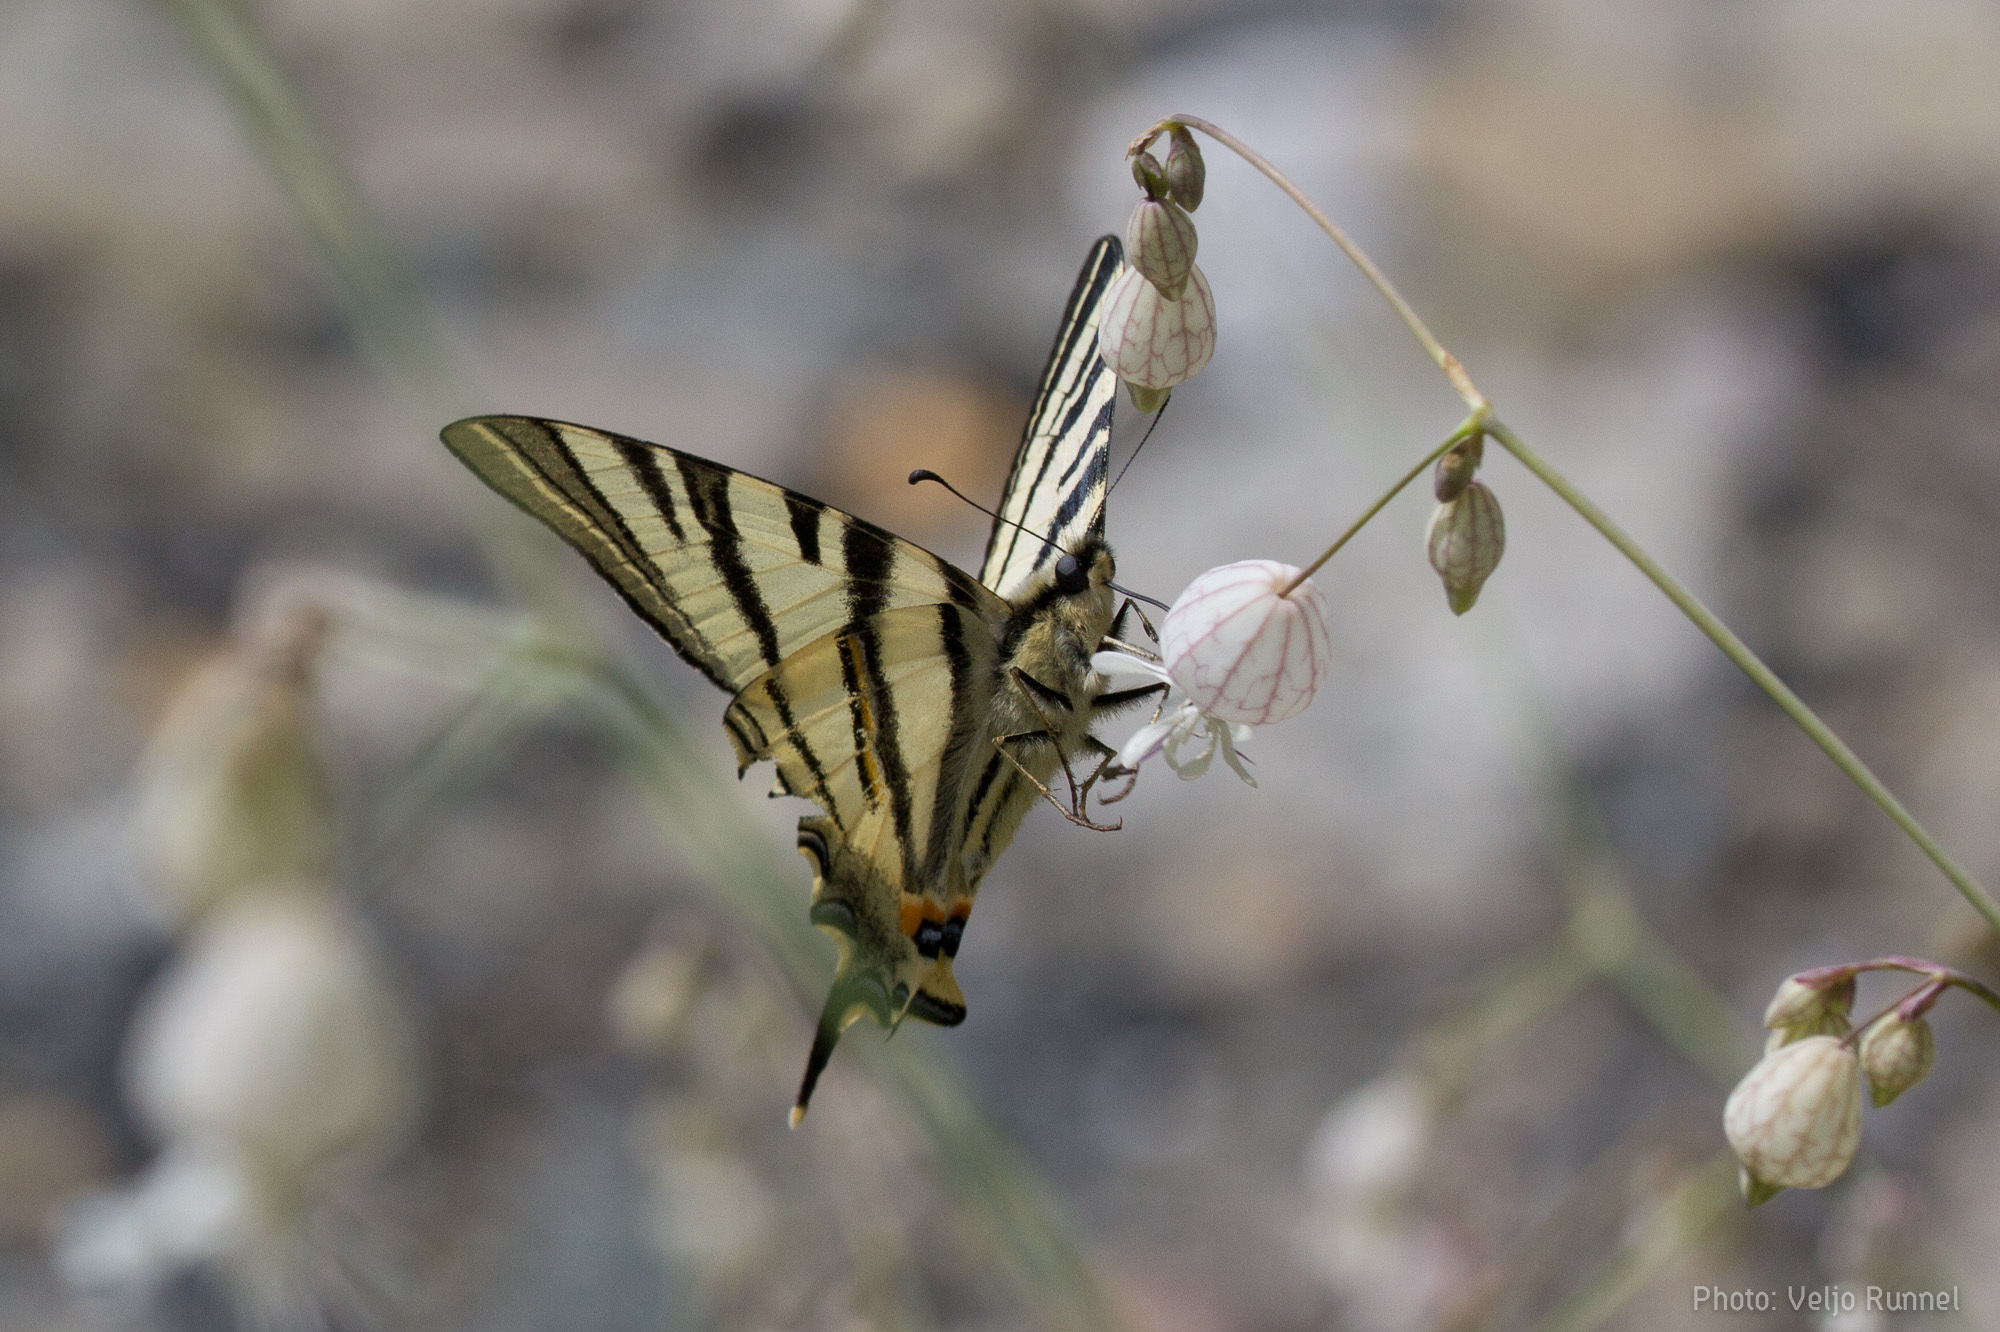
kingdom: Animalia
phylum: Arthropoda
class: Insecta
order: Lepidoptera
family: Papilionidae
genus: Iphiclides
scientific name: Iphiclides podalirius
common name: Scarce swallowtail
